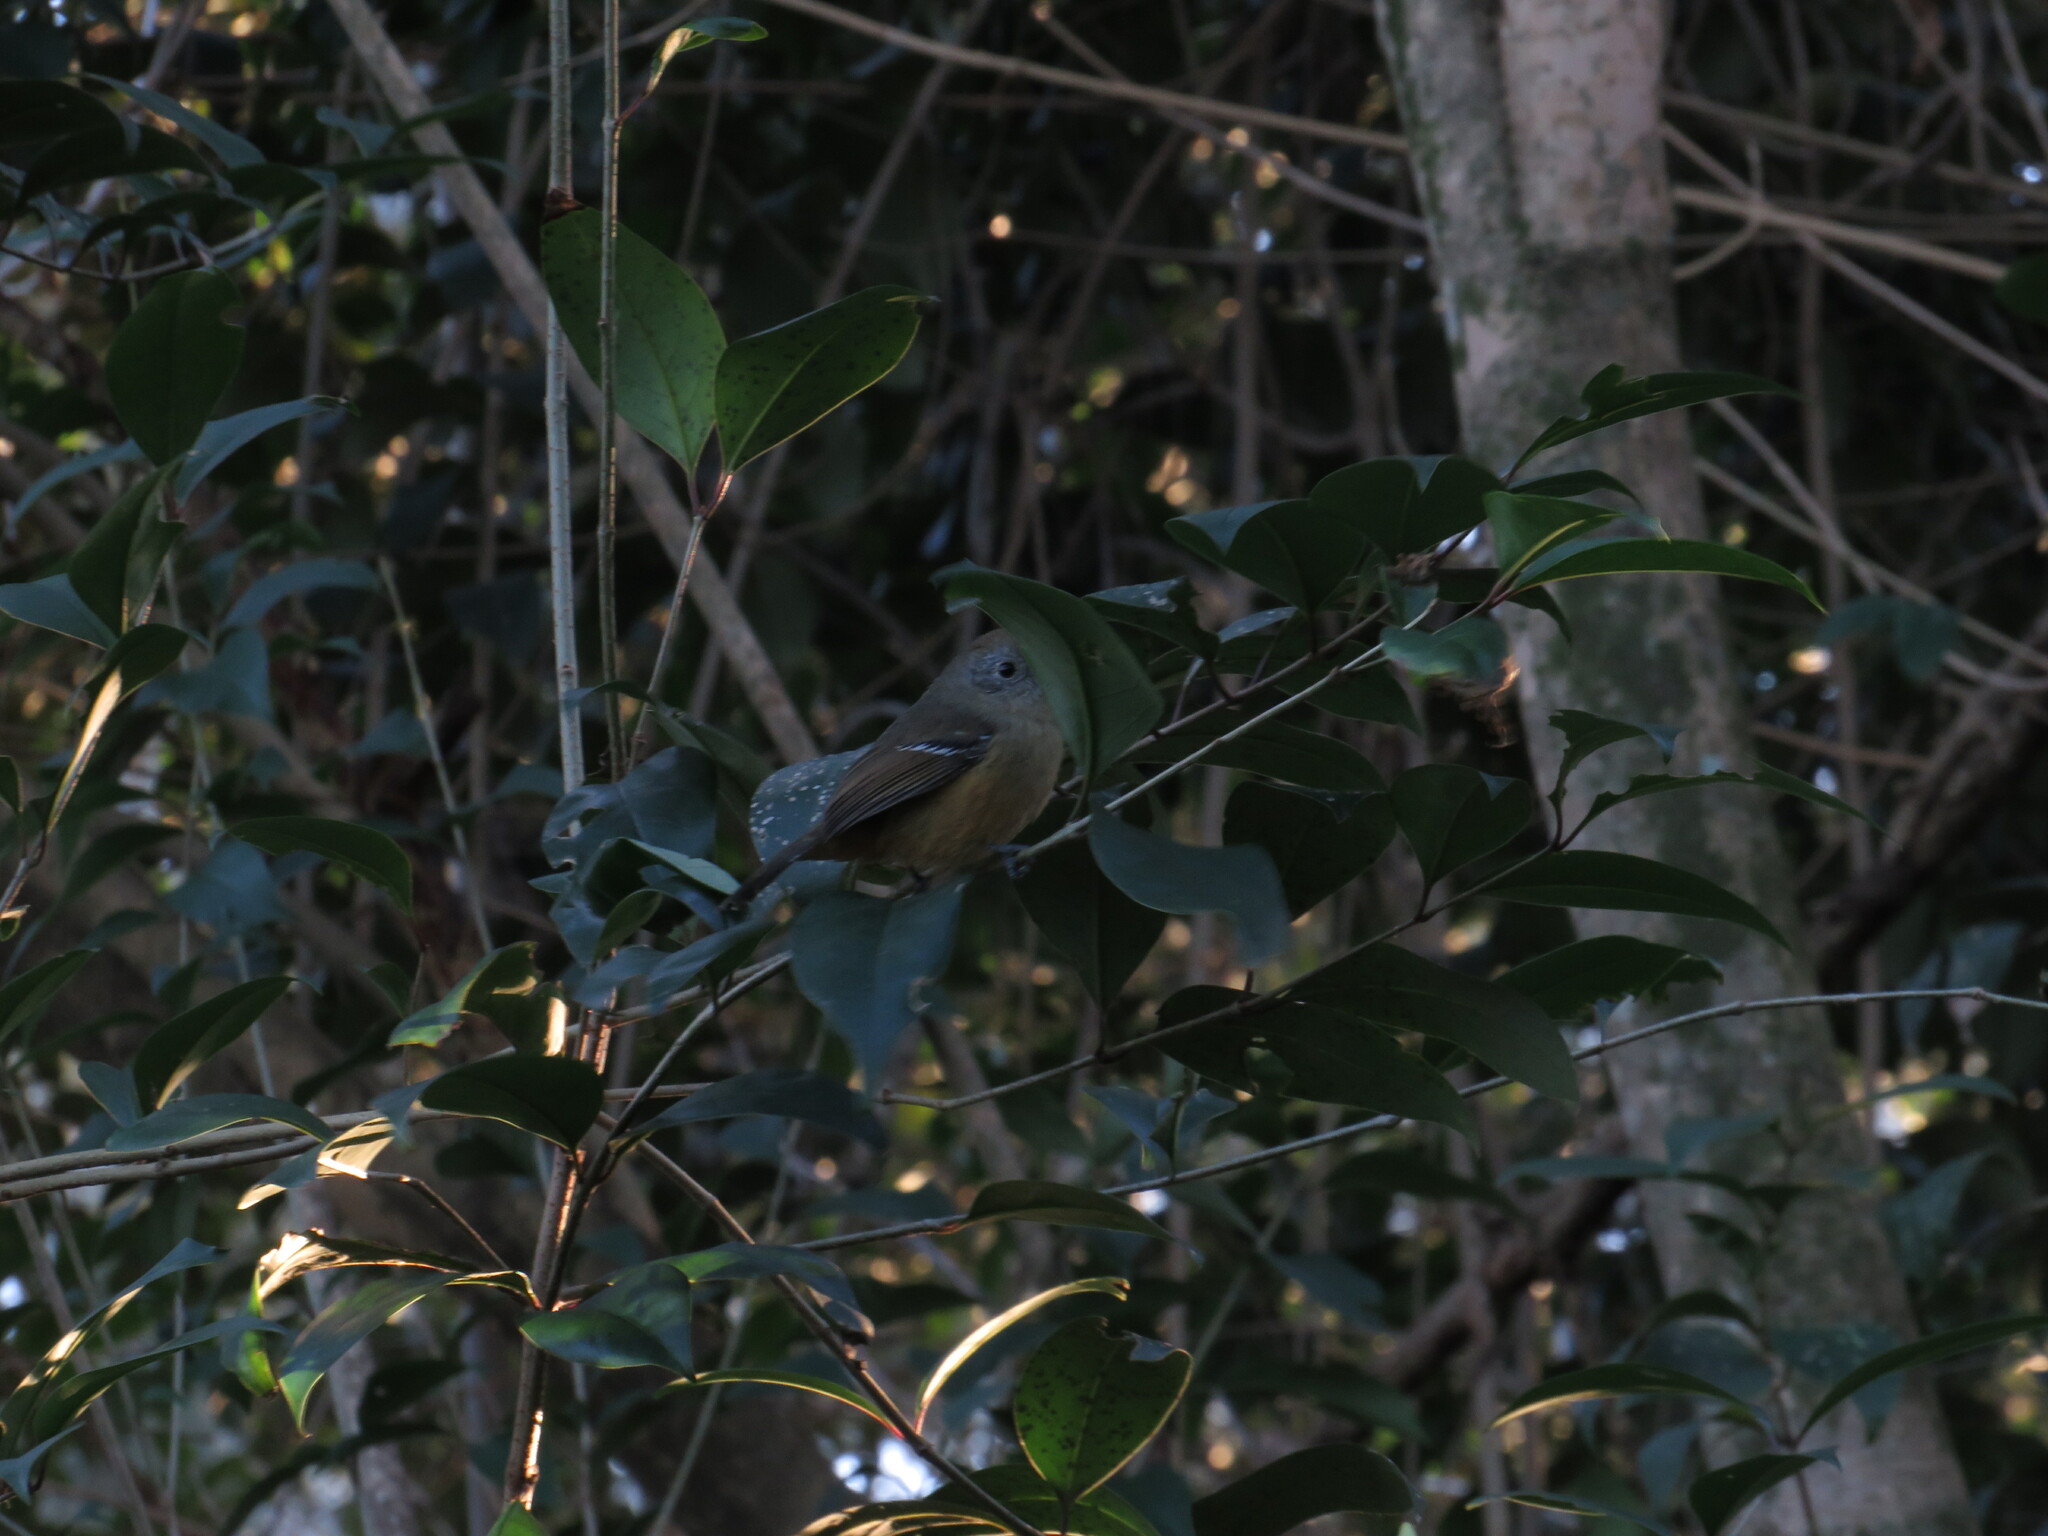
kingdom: Animalia
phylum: Chordata
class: Aves
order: Passeriformes
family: Thamnophilidae
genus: Thamnophilus
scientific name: Thamnophilus caerulescens
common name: Variable antshrike
